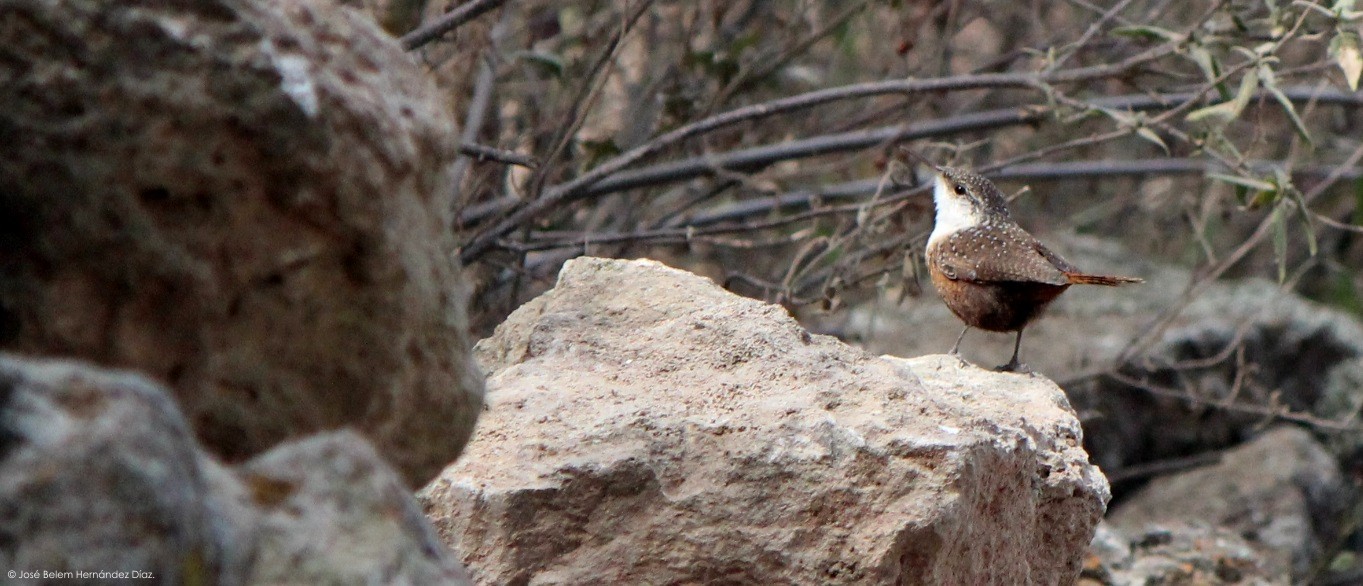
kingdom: Animalia
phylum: Chordata
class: Aves
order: Passeriformes
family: Troglodytidae
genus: Catherpes
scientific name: Catherpes mexicanus
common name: Canyon wren
